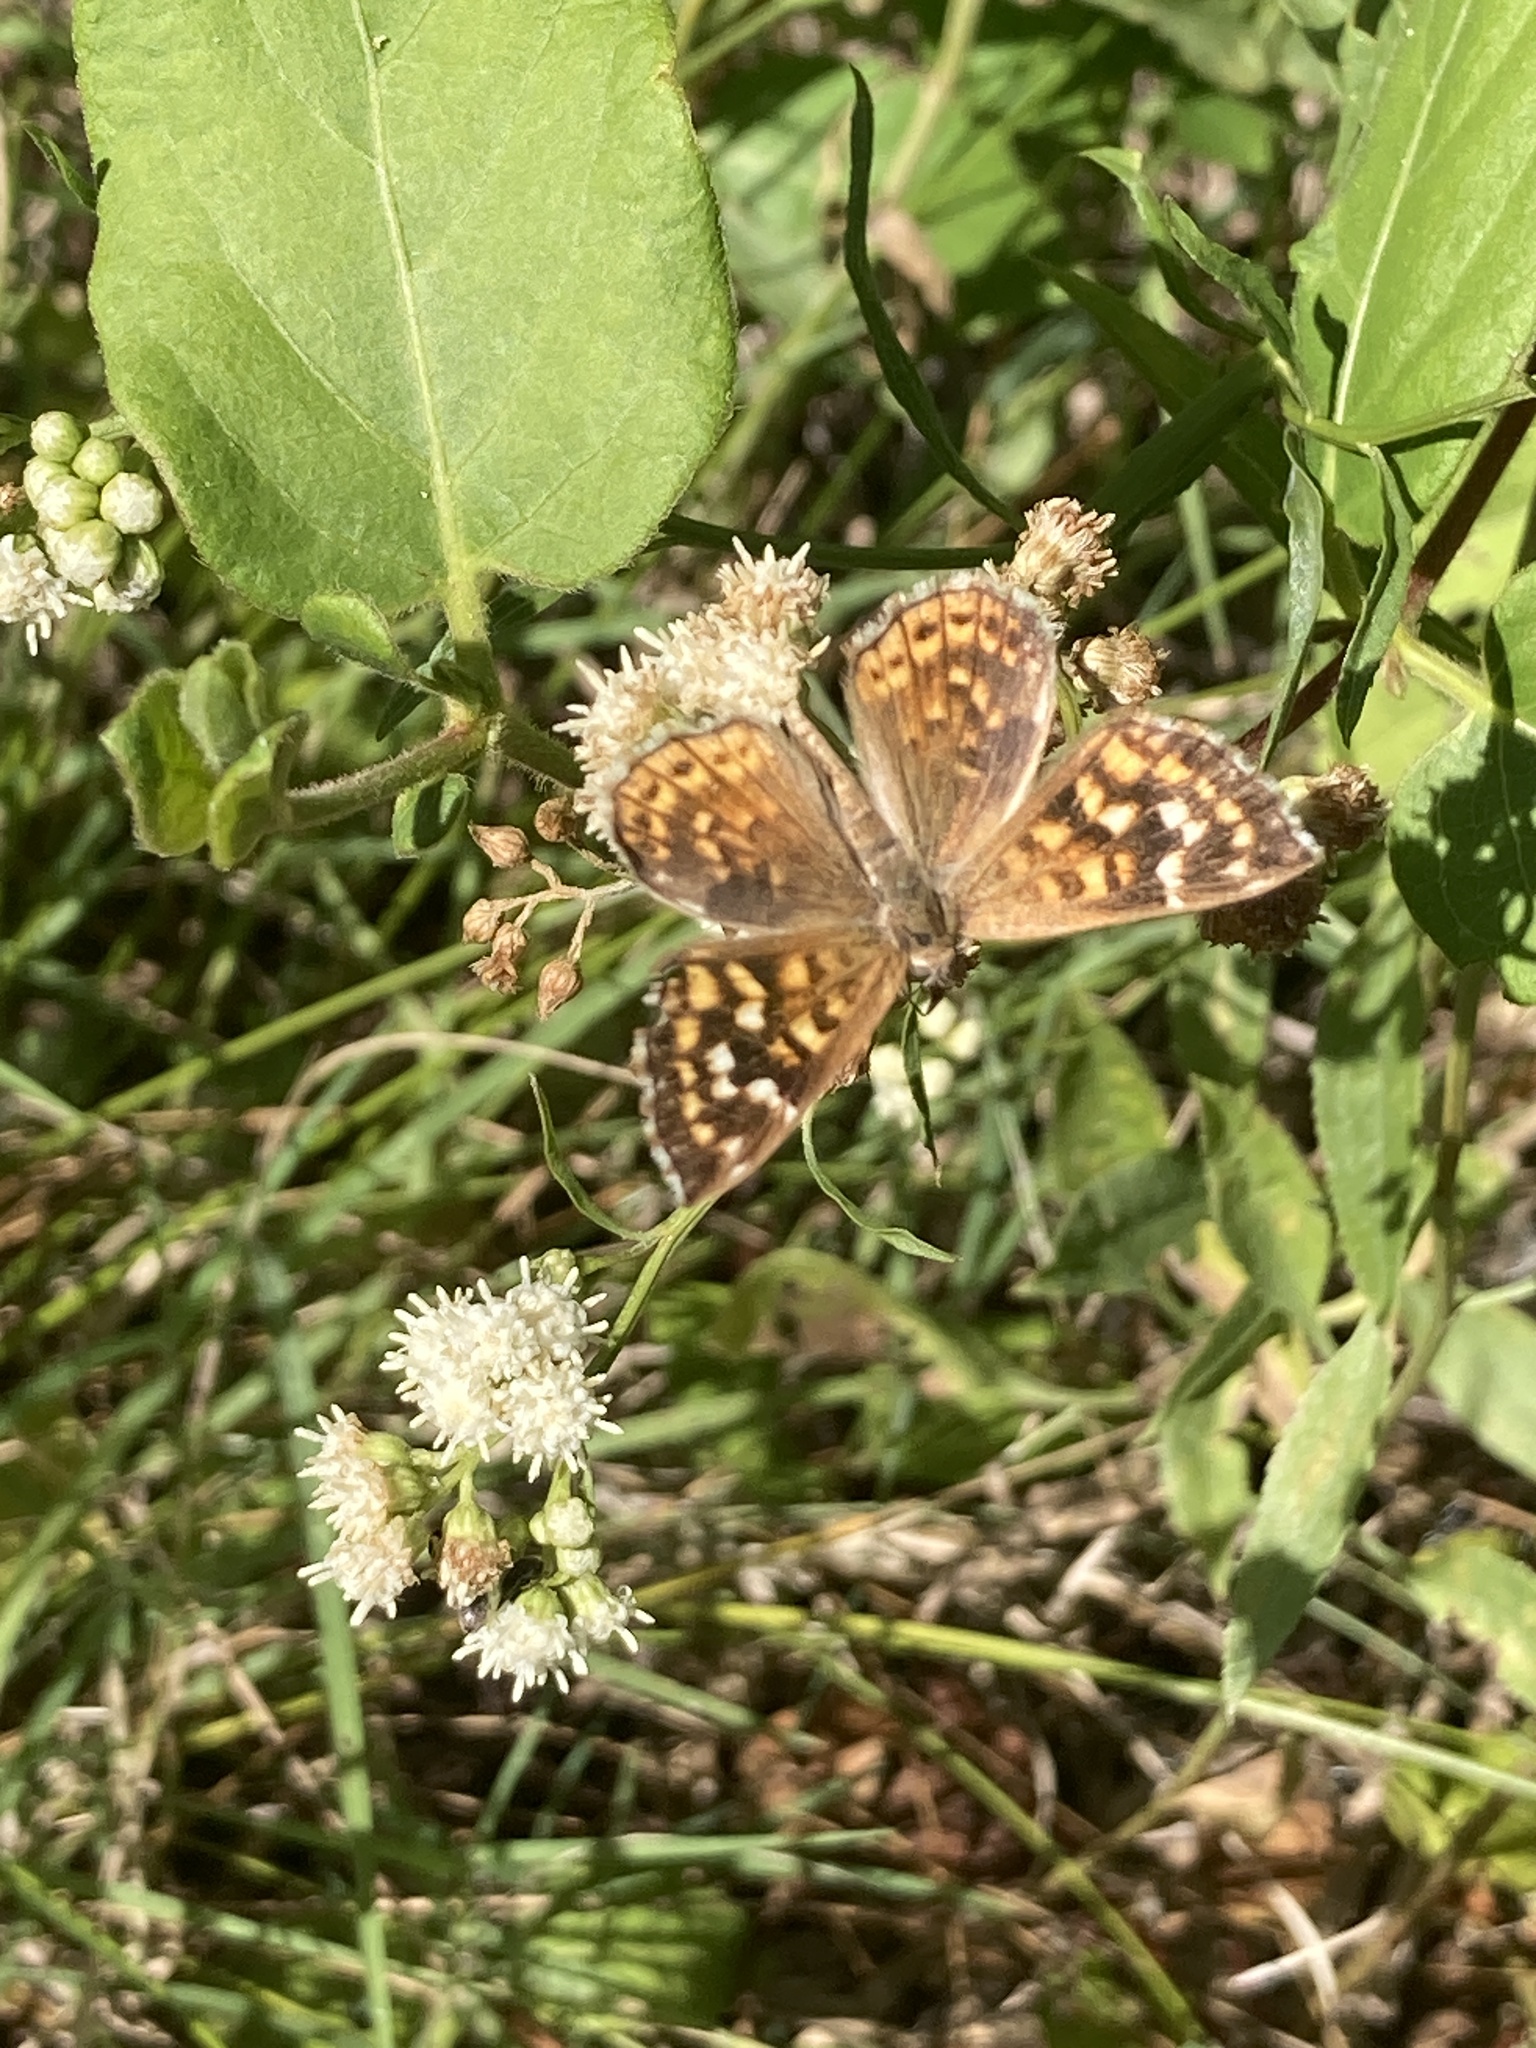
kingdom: Animalia
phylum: Arthropoda
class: Insecta
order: Lepidoptera
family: Lycaenidae
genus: Aricoris
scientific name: Aricoris indistincta
